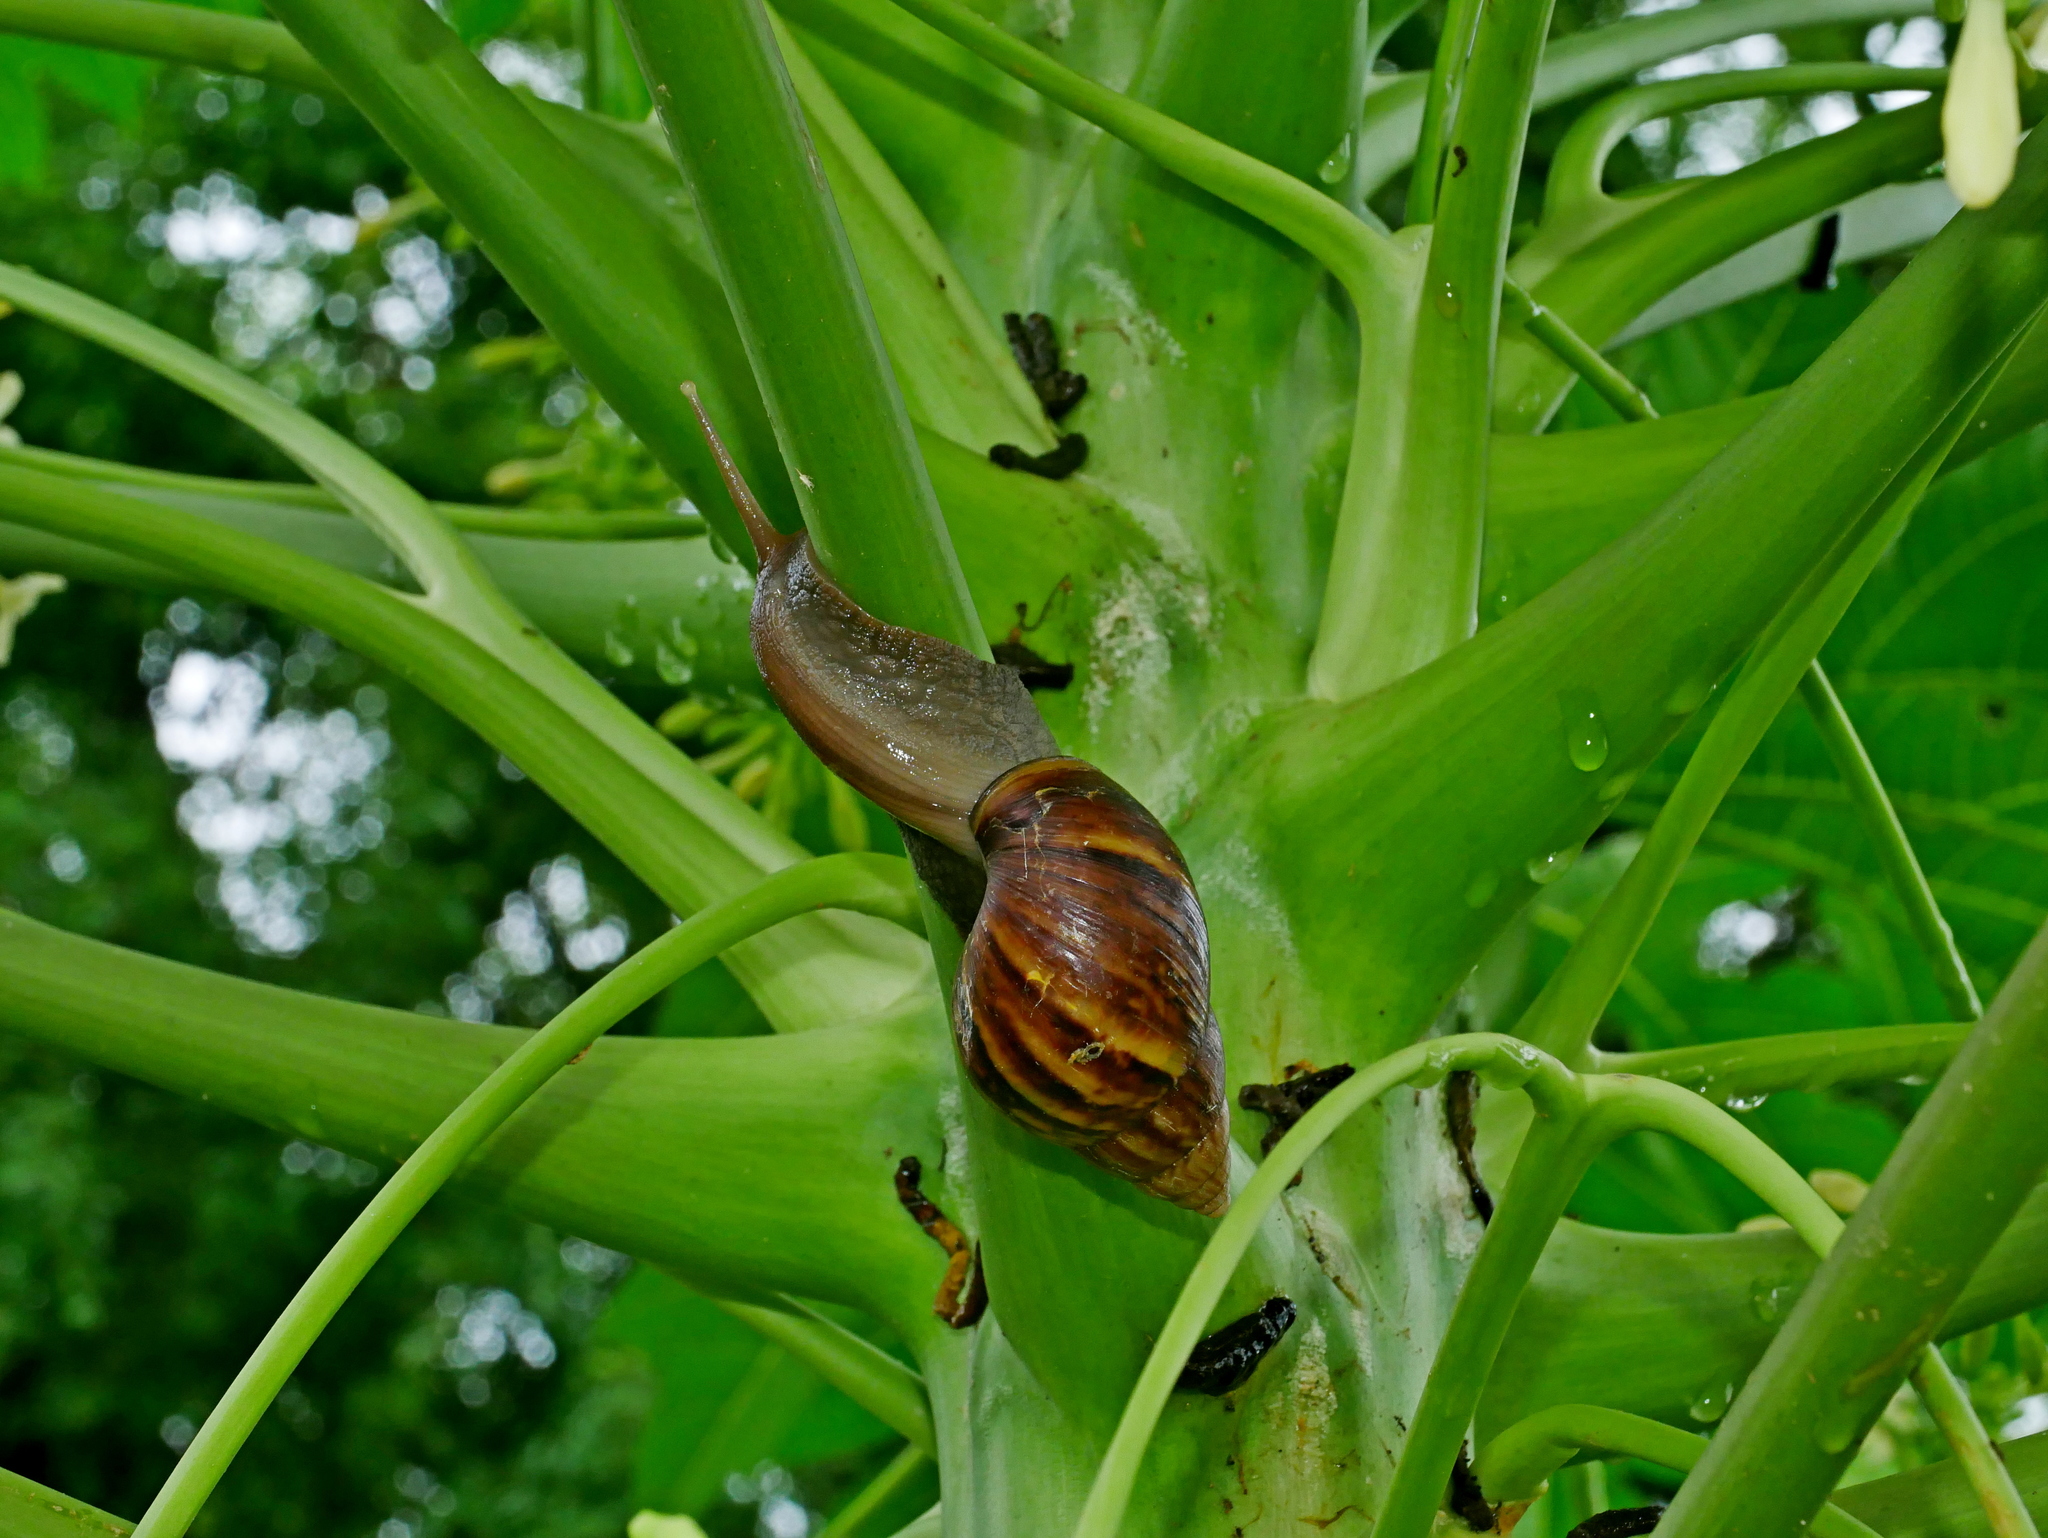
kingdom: Animalia
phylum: Mollusca
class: Gastropoda
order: Stylommatophora
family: Achatinidae
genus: Lissachatina
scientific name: Lissachatina fulica
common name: Giant african snail
